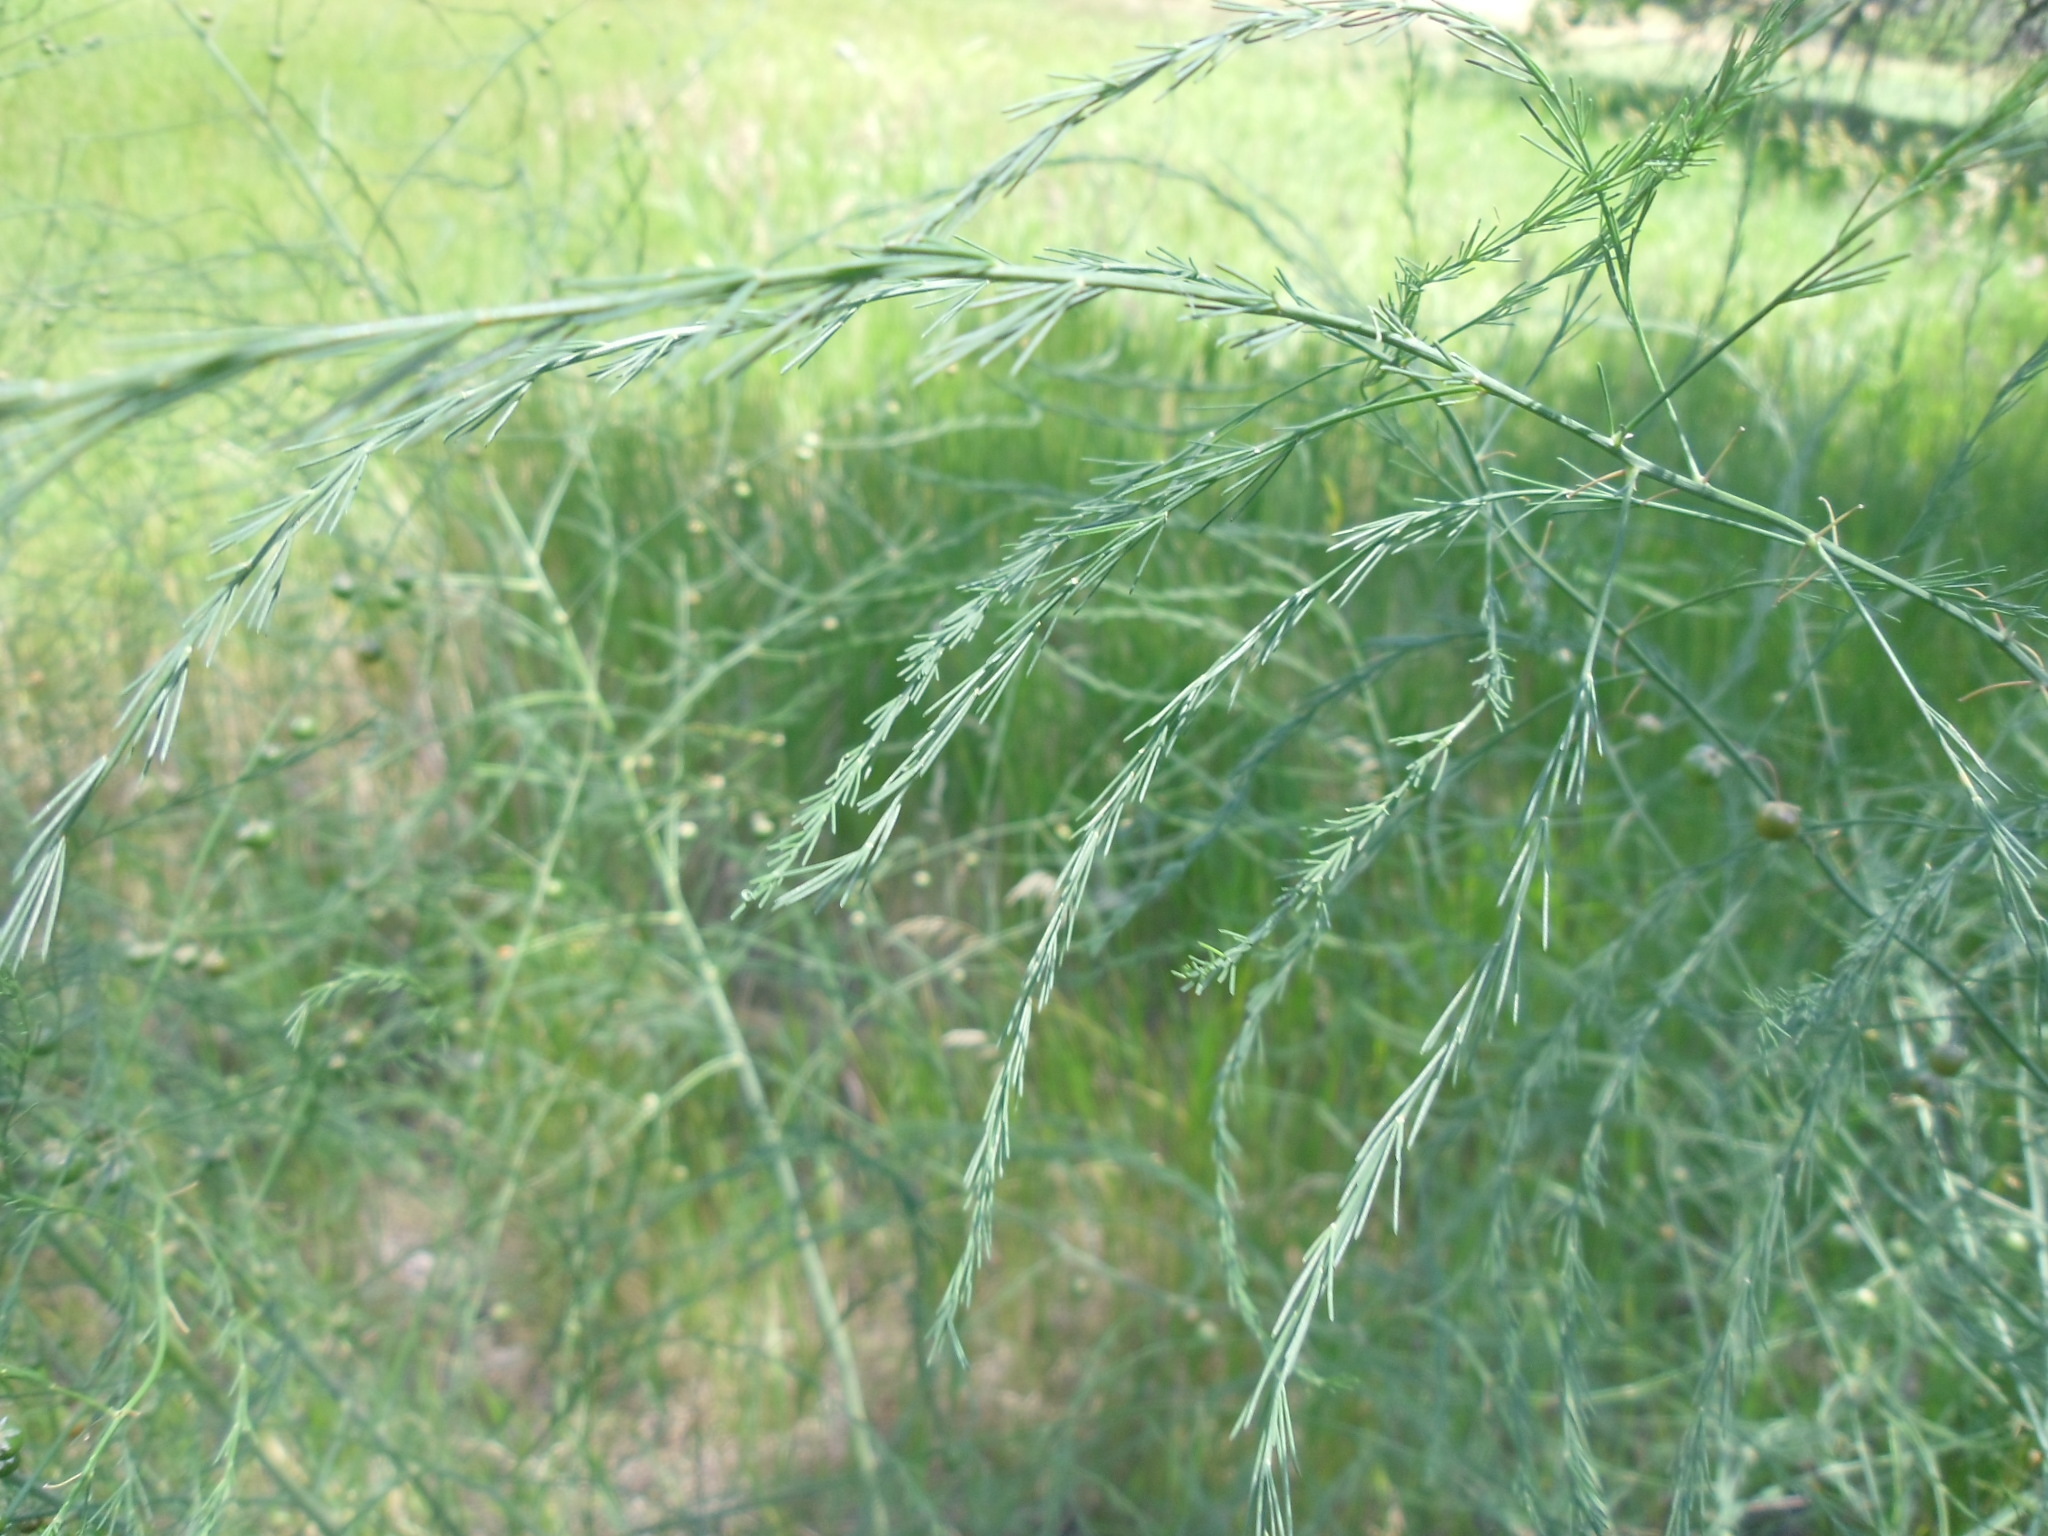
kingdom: Plantae
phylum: Tracheophyta
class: Liliopsida
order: Asparagales
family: Asparagaceae
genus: Asparagus
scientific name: Asparagus officinalis
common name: Garden asparagus
